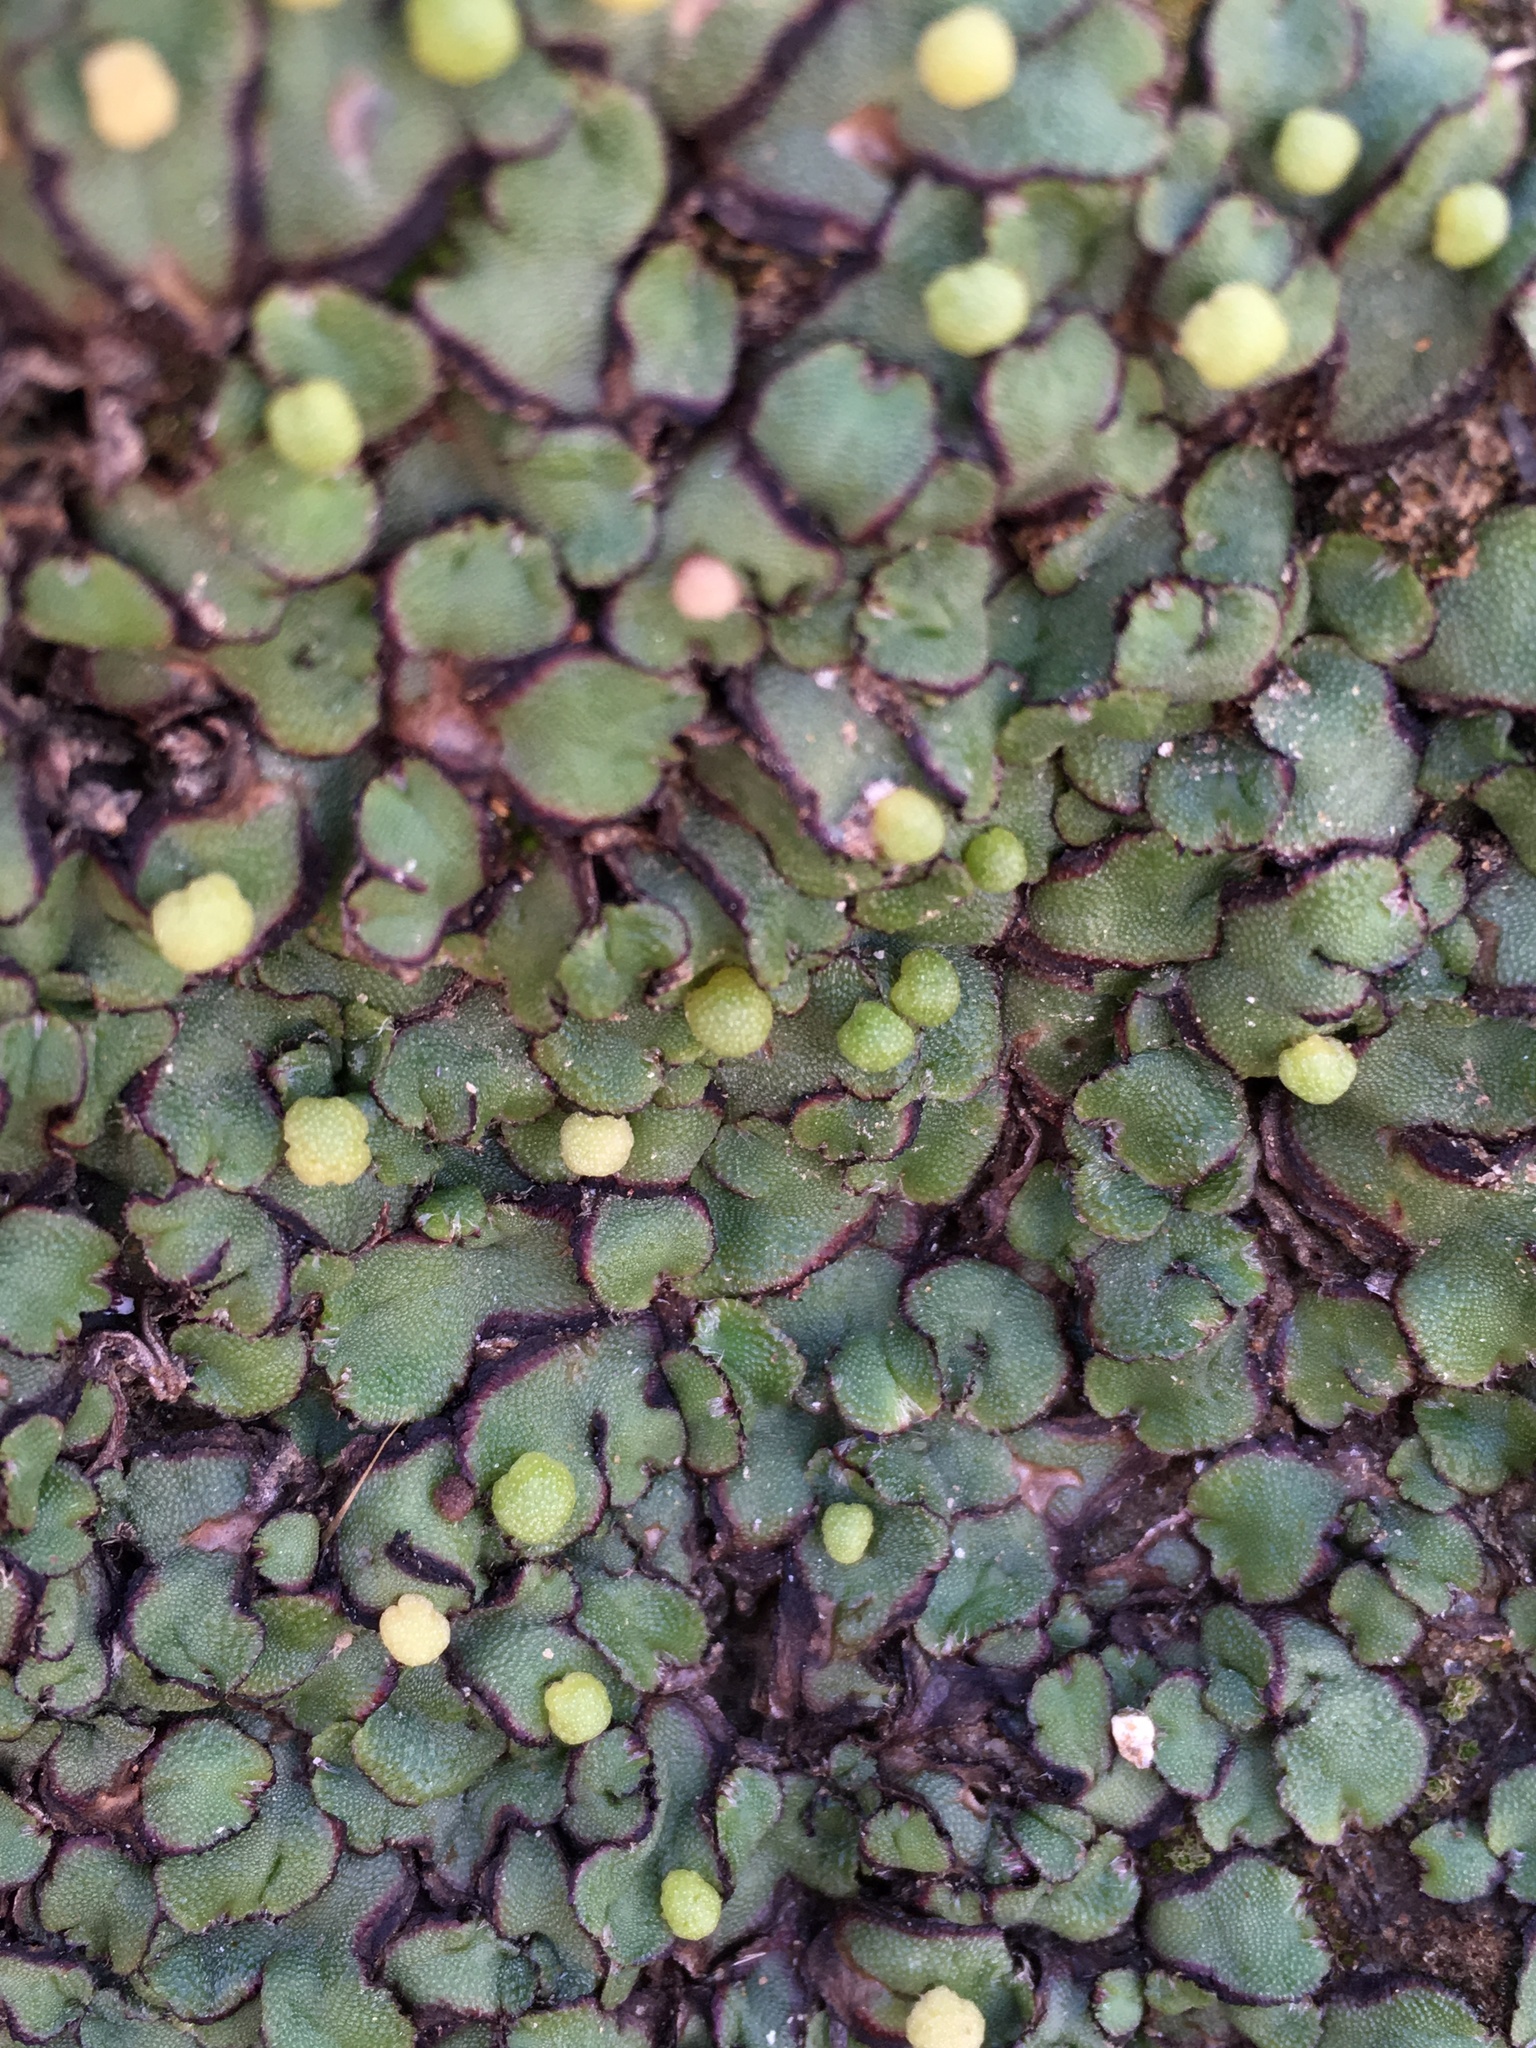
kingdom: Plantae
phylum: Marchantiophyta
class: Marchantiopsida
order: Marchantiales
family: Aytoniaceae
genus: Asterella
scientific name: Asterella californica
